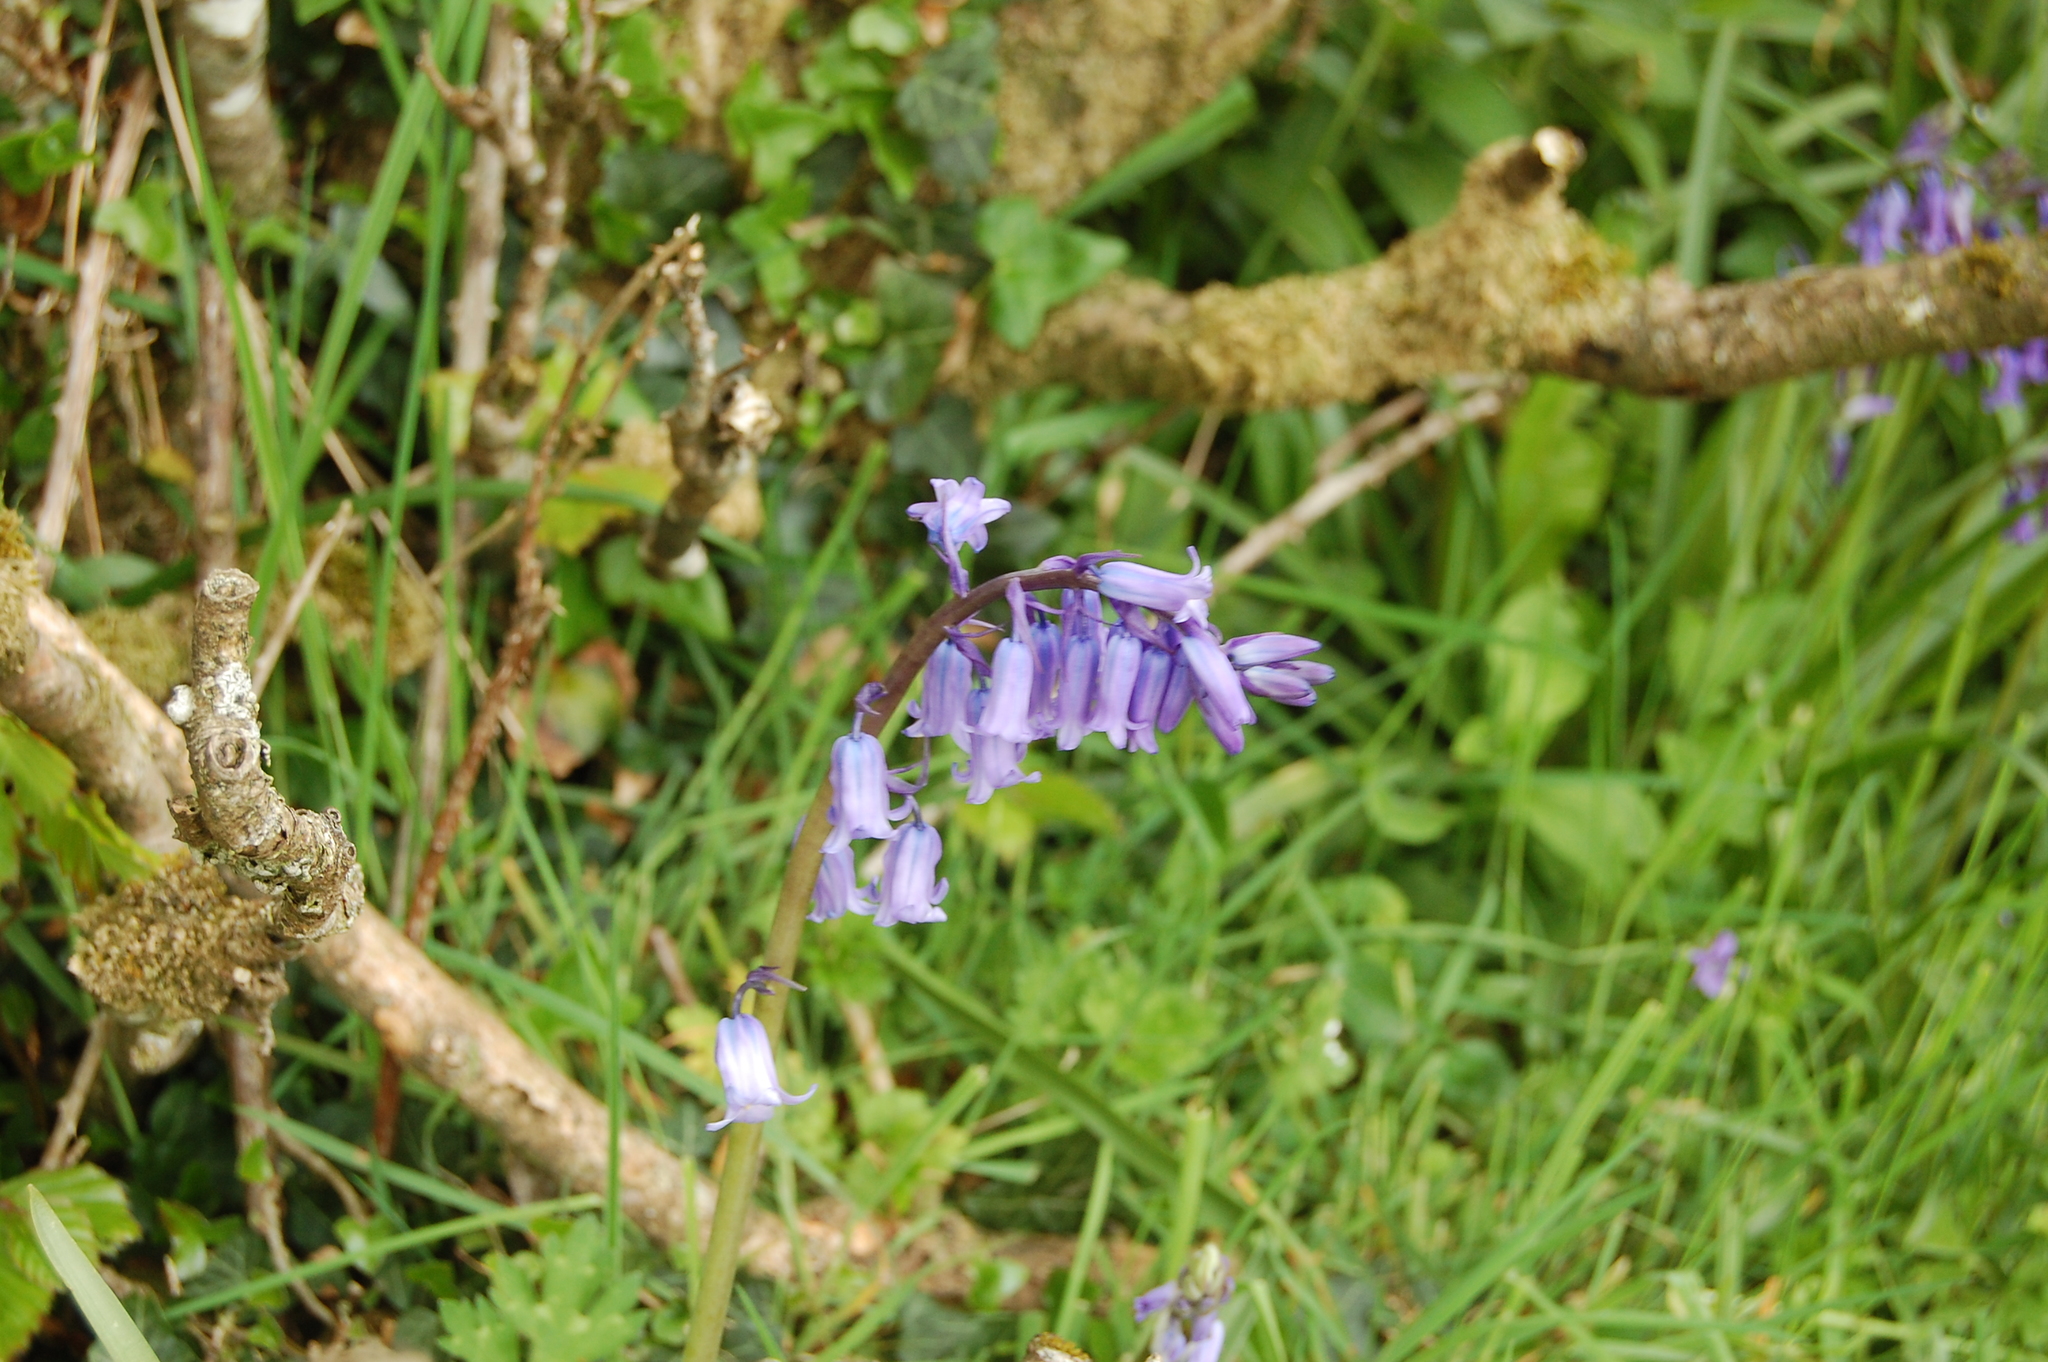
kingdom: Plantae
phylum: Tracheophyta
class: Liliopsida
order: Asparagales
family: Asparagaceae
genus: Hyacinthoides
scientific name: Hyacinthoides non-scripta
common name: Bluebell
